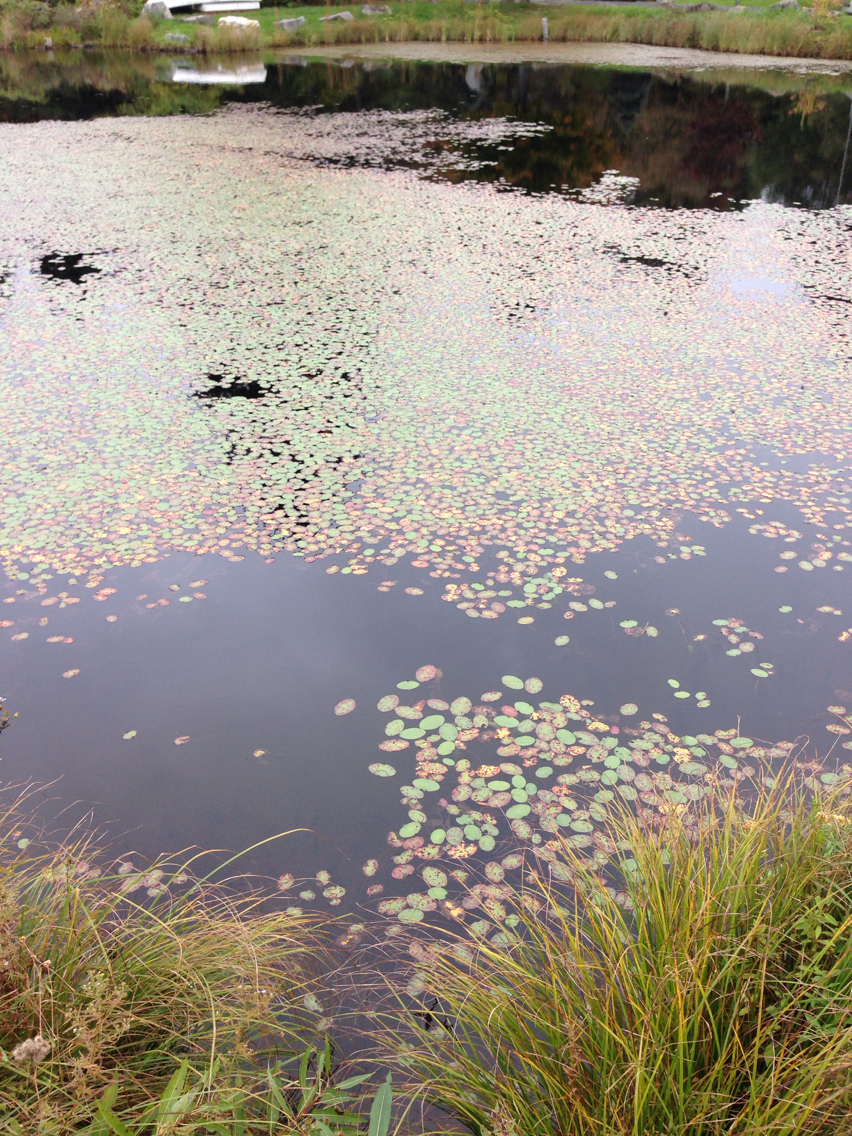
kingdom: Plantae
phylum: Tracheophyta
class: Magnoliopsida
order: Nymphaeales
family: Cabombaceae
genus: Brasenia
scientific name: Brasenia schreberi
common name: Water-shield
